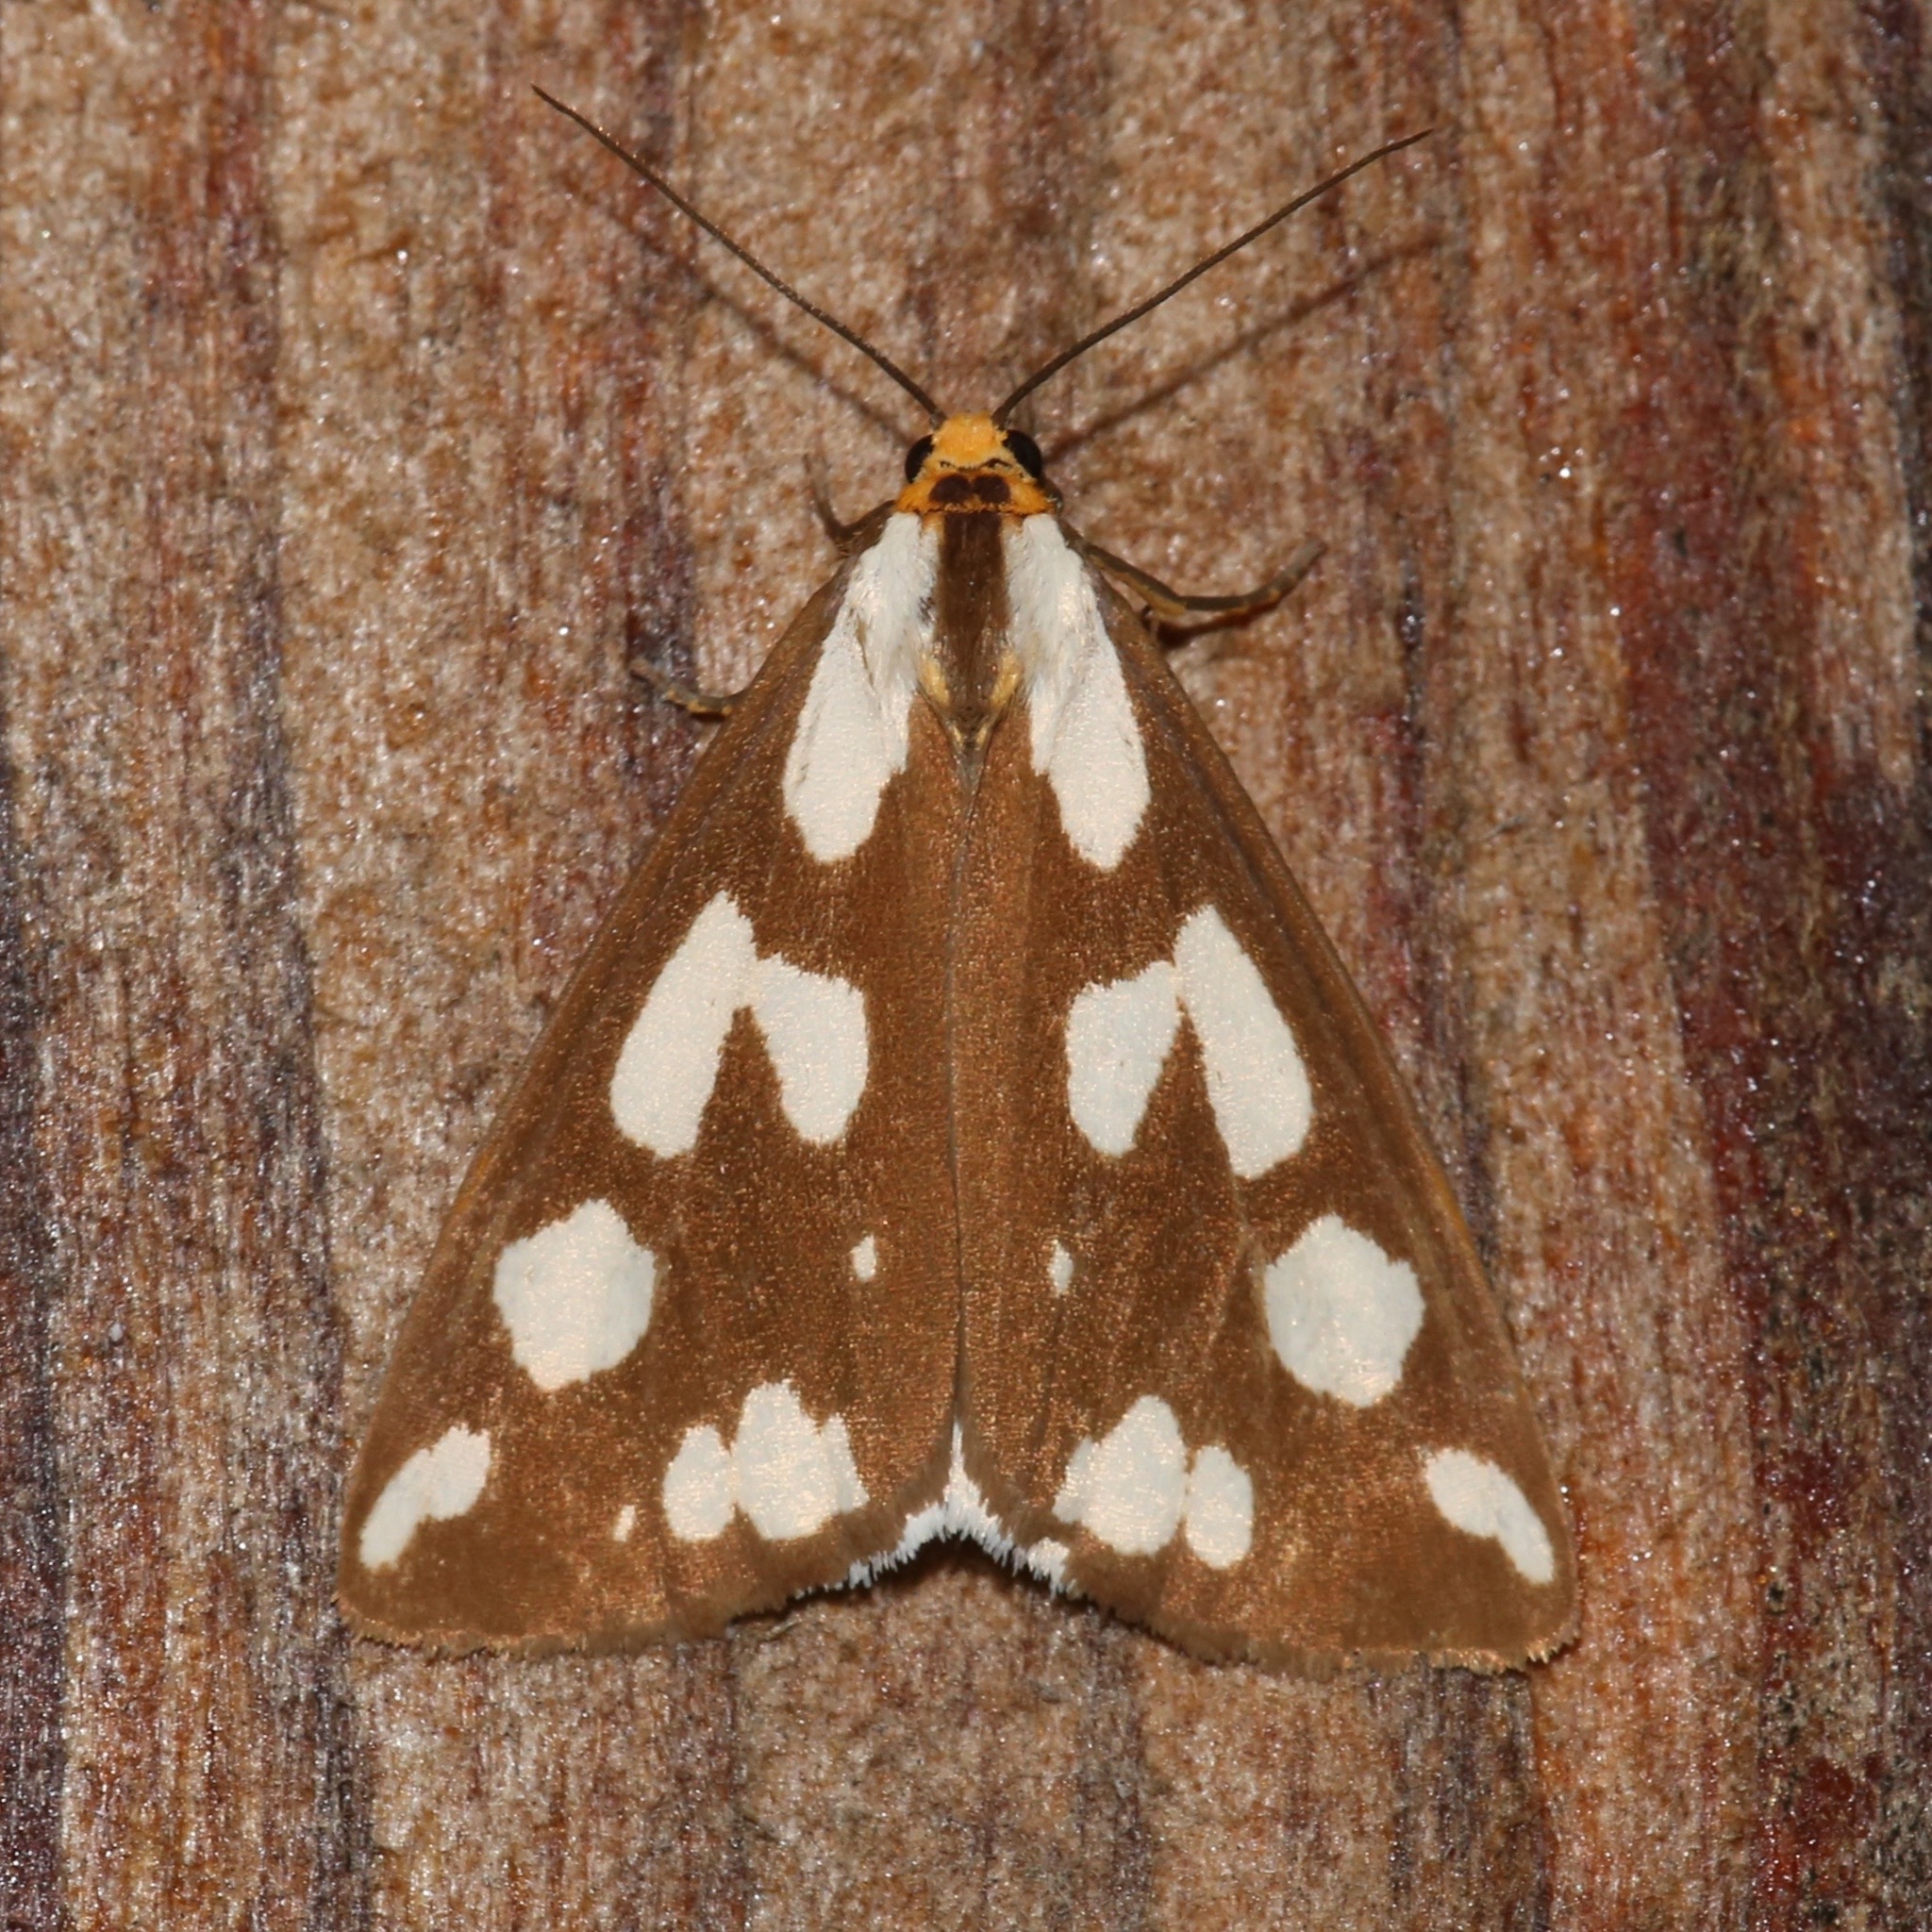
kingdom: Animalia
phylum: Arthropoda
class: Insecta
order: Lepidoptera
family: Erebidae
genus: Haploa
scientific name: Haploa confusa
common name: Confused haploa moth
